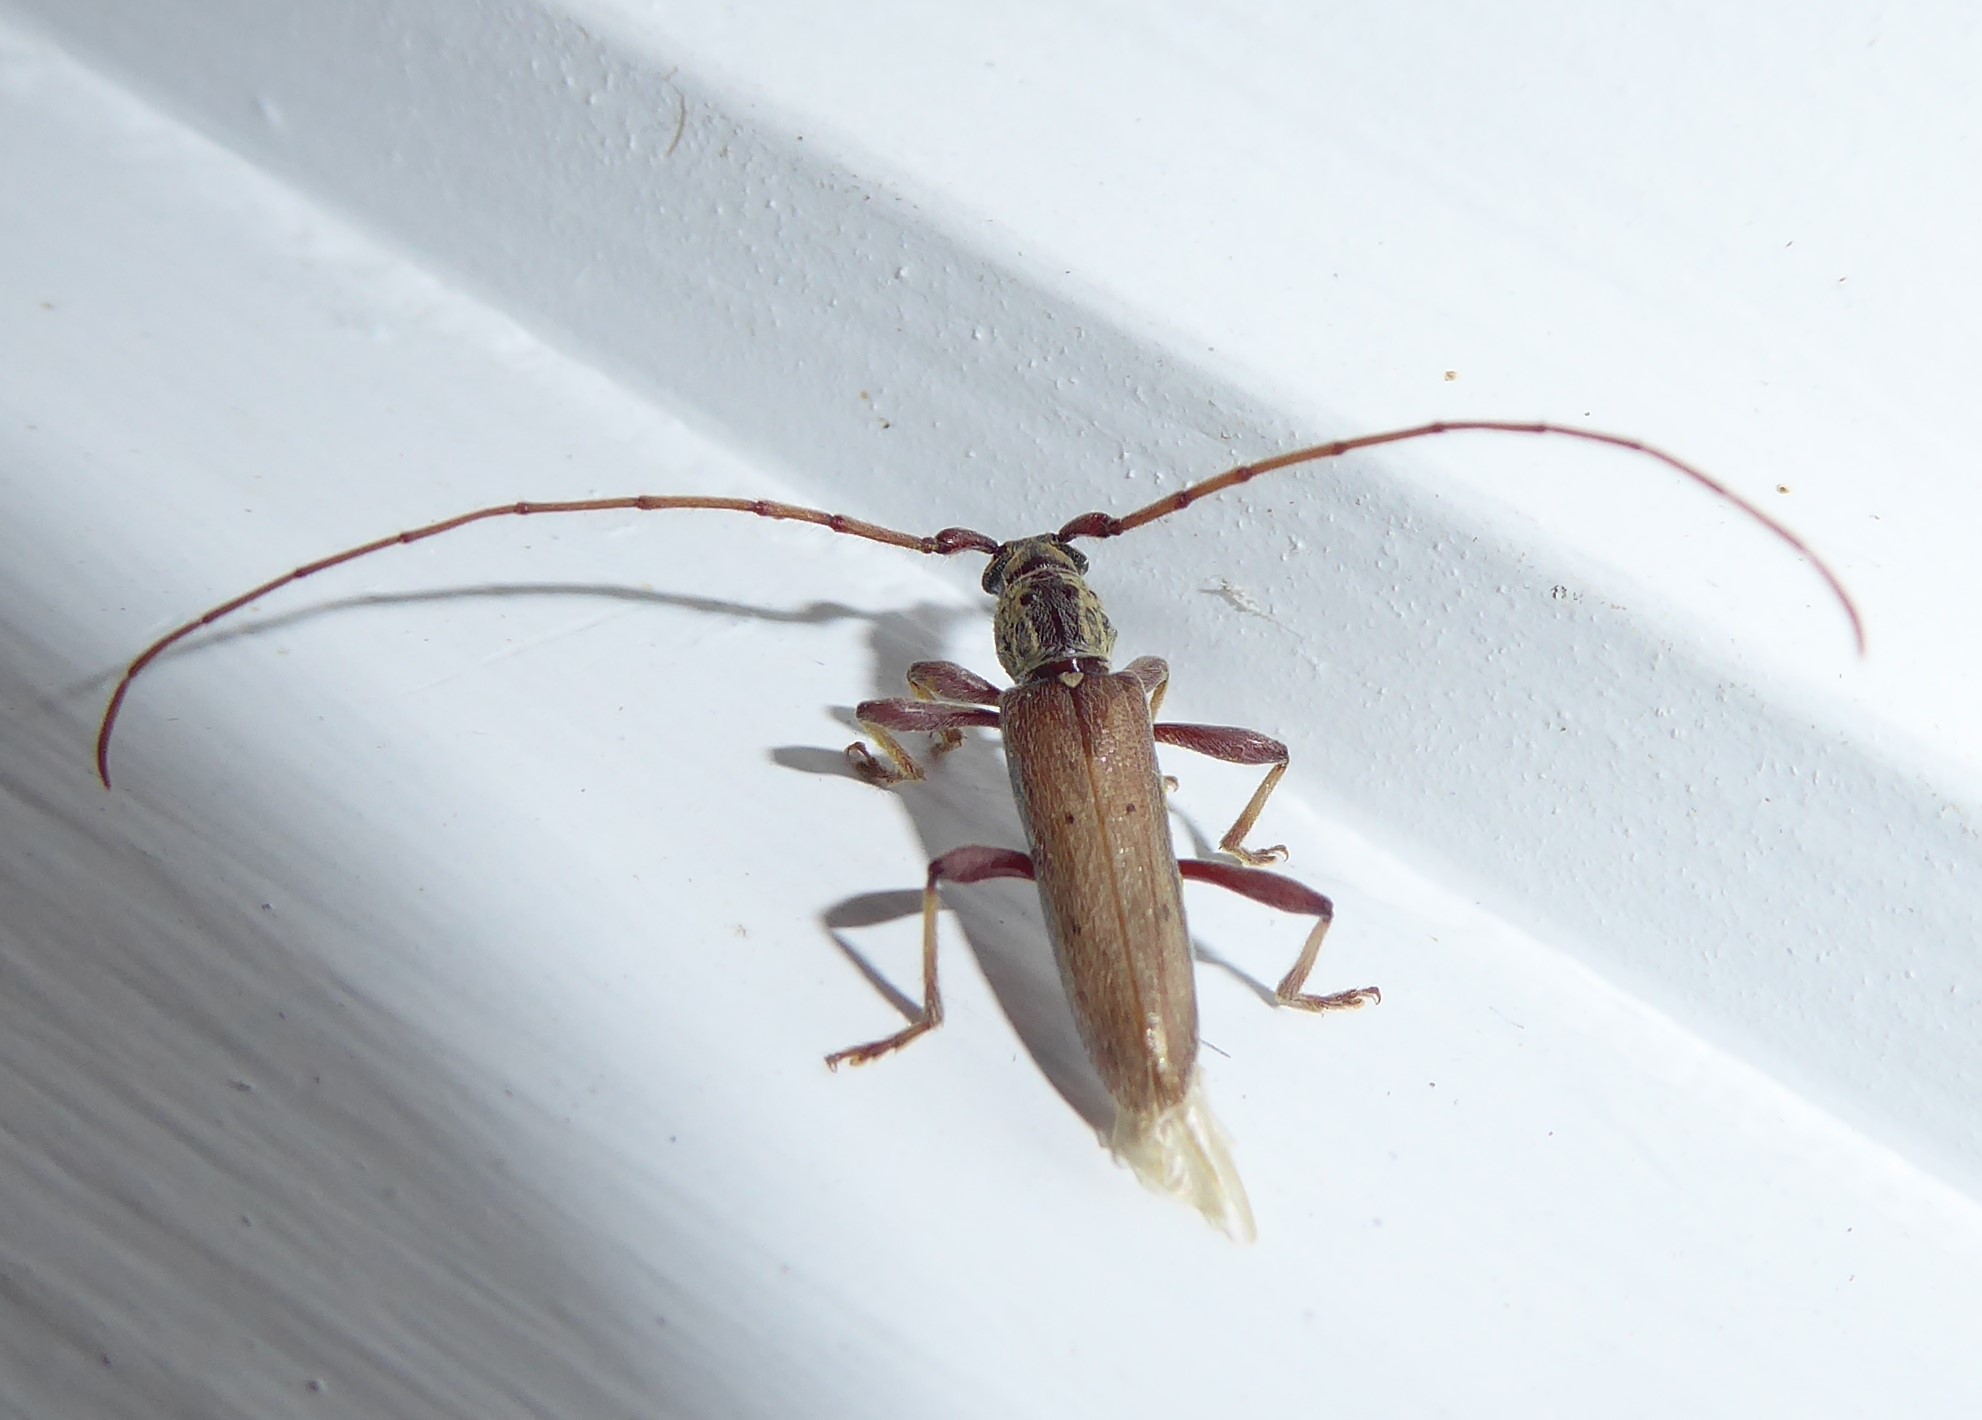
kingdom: Animalia
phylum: Arthropoda
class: Insecta
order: Coleoptera
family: Cerambycidae
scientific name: Cerambycidae
